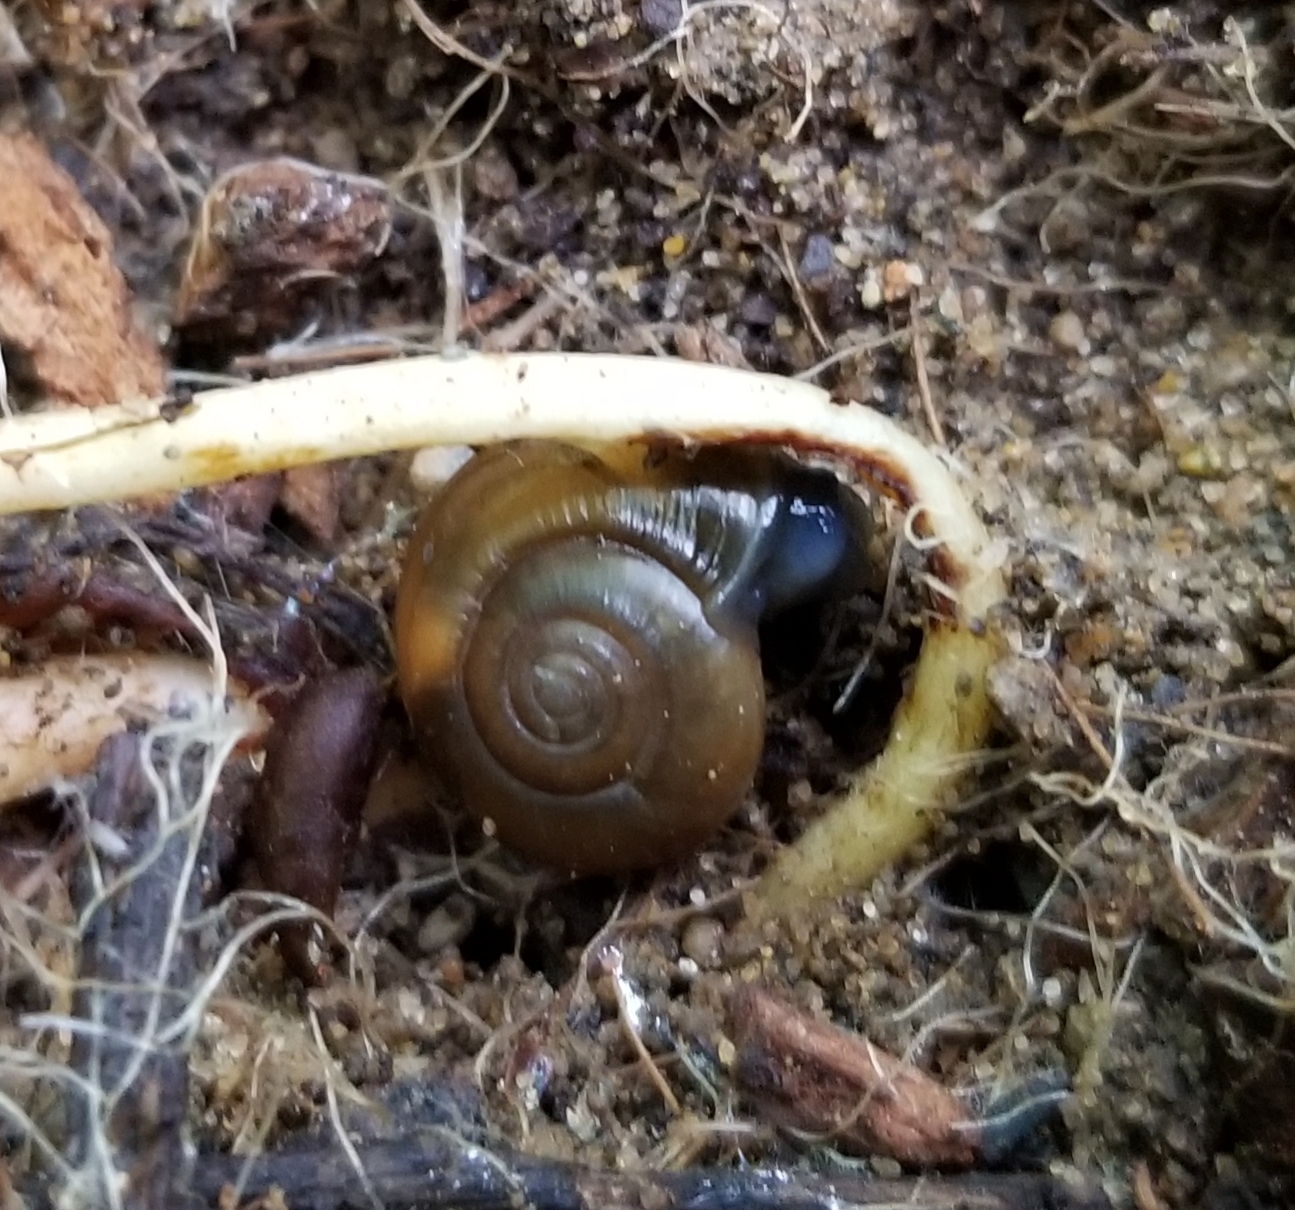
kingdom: Animalia
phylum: Mollusca
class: Gastropoda
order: Stylommatophora
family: Oxychilidae
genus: Oxychilus
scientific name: Oxychilus draparnaudi
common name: Draparnaud's glass snail
